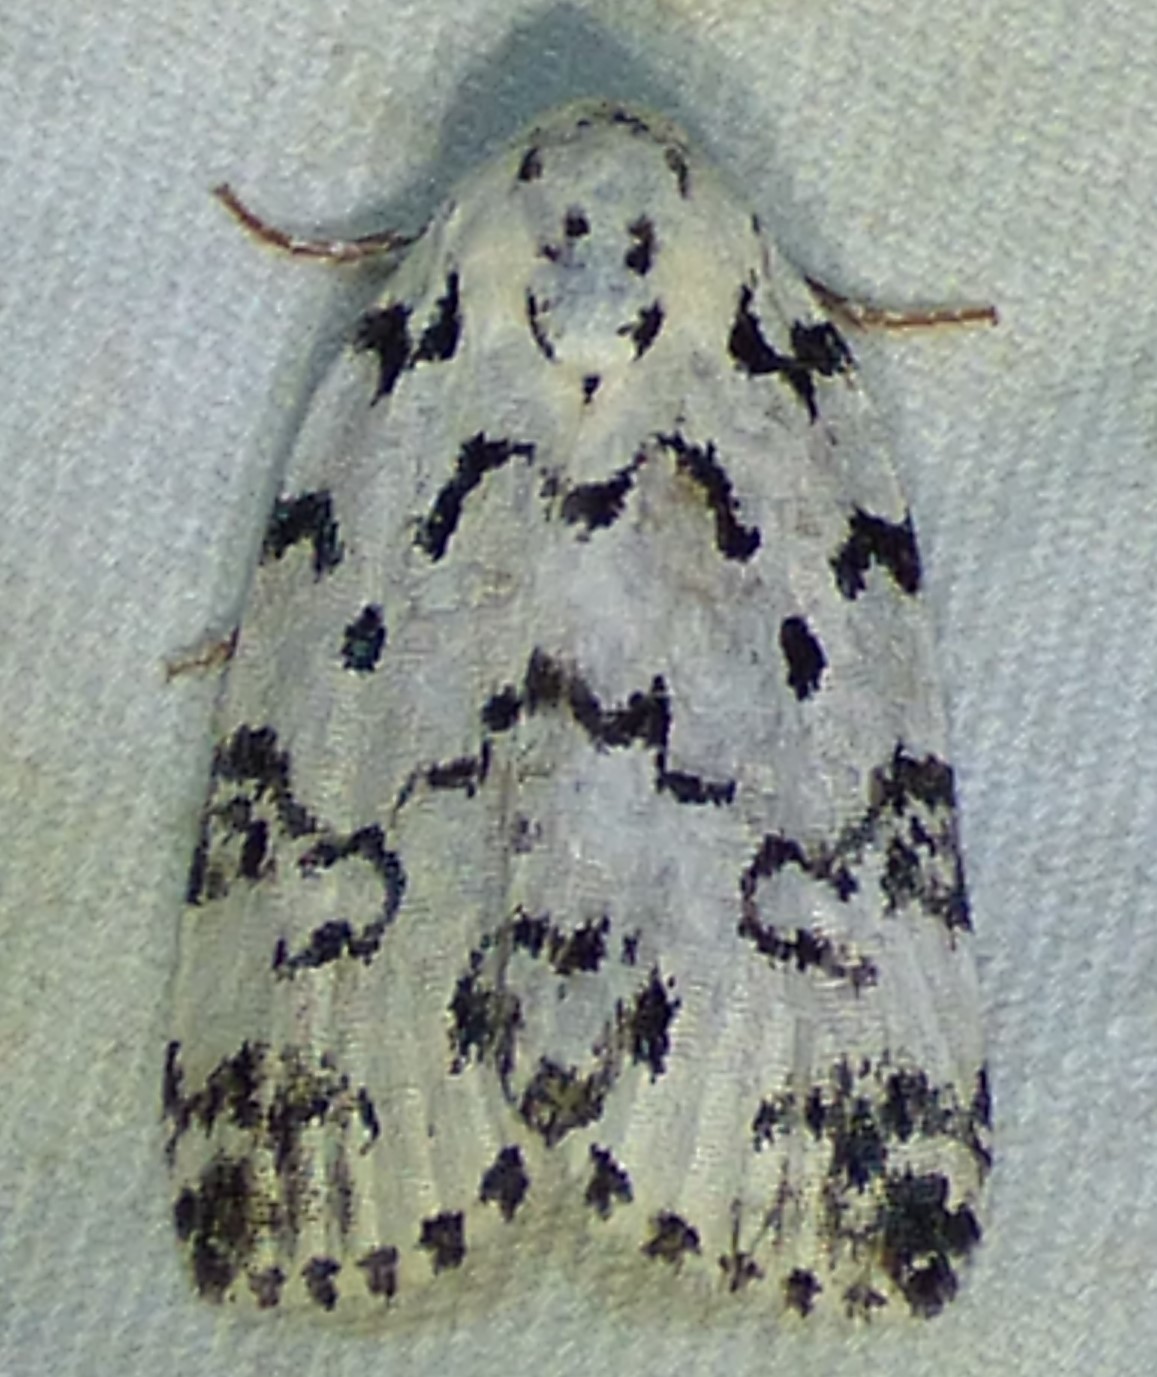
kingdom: Animalia
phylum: Arthropoda
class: Insecta
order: Lepidoptera
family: Noctuidae
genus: Polygrammate
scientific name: Polygrammate hebraeicum
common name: Hebrew moth
